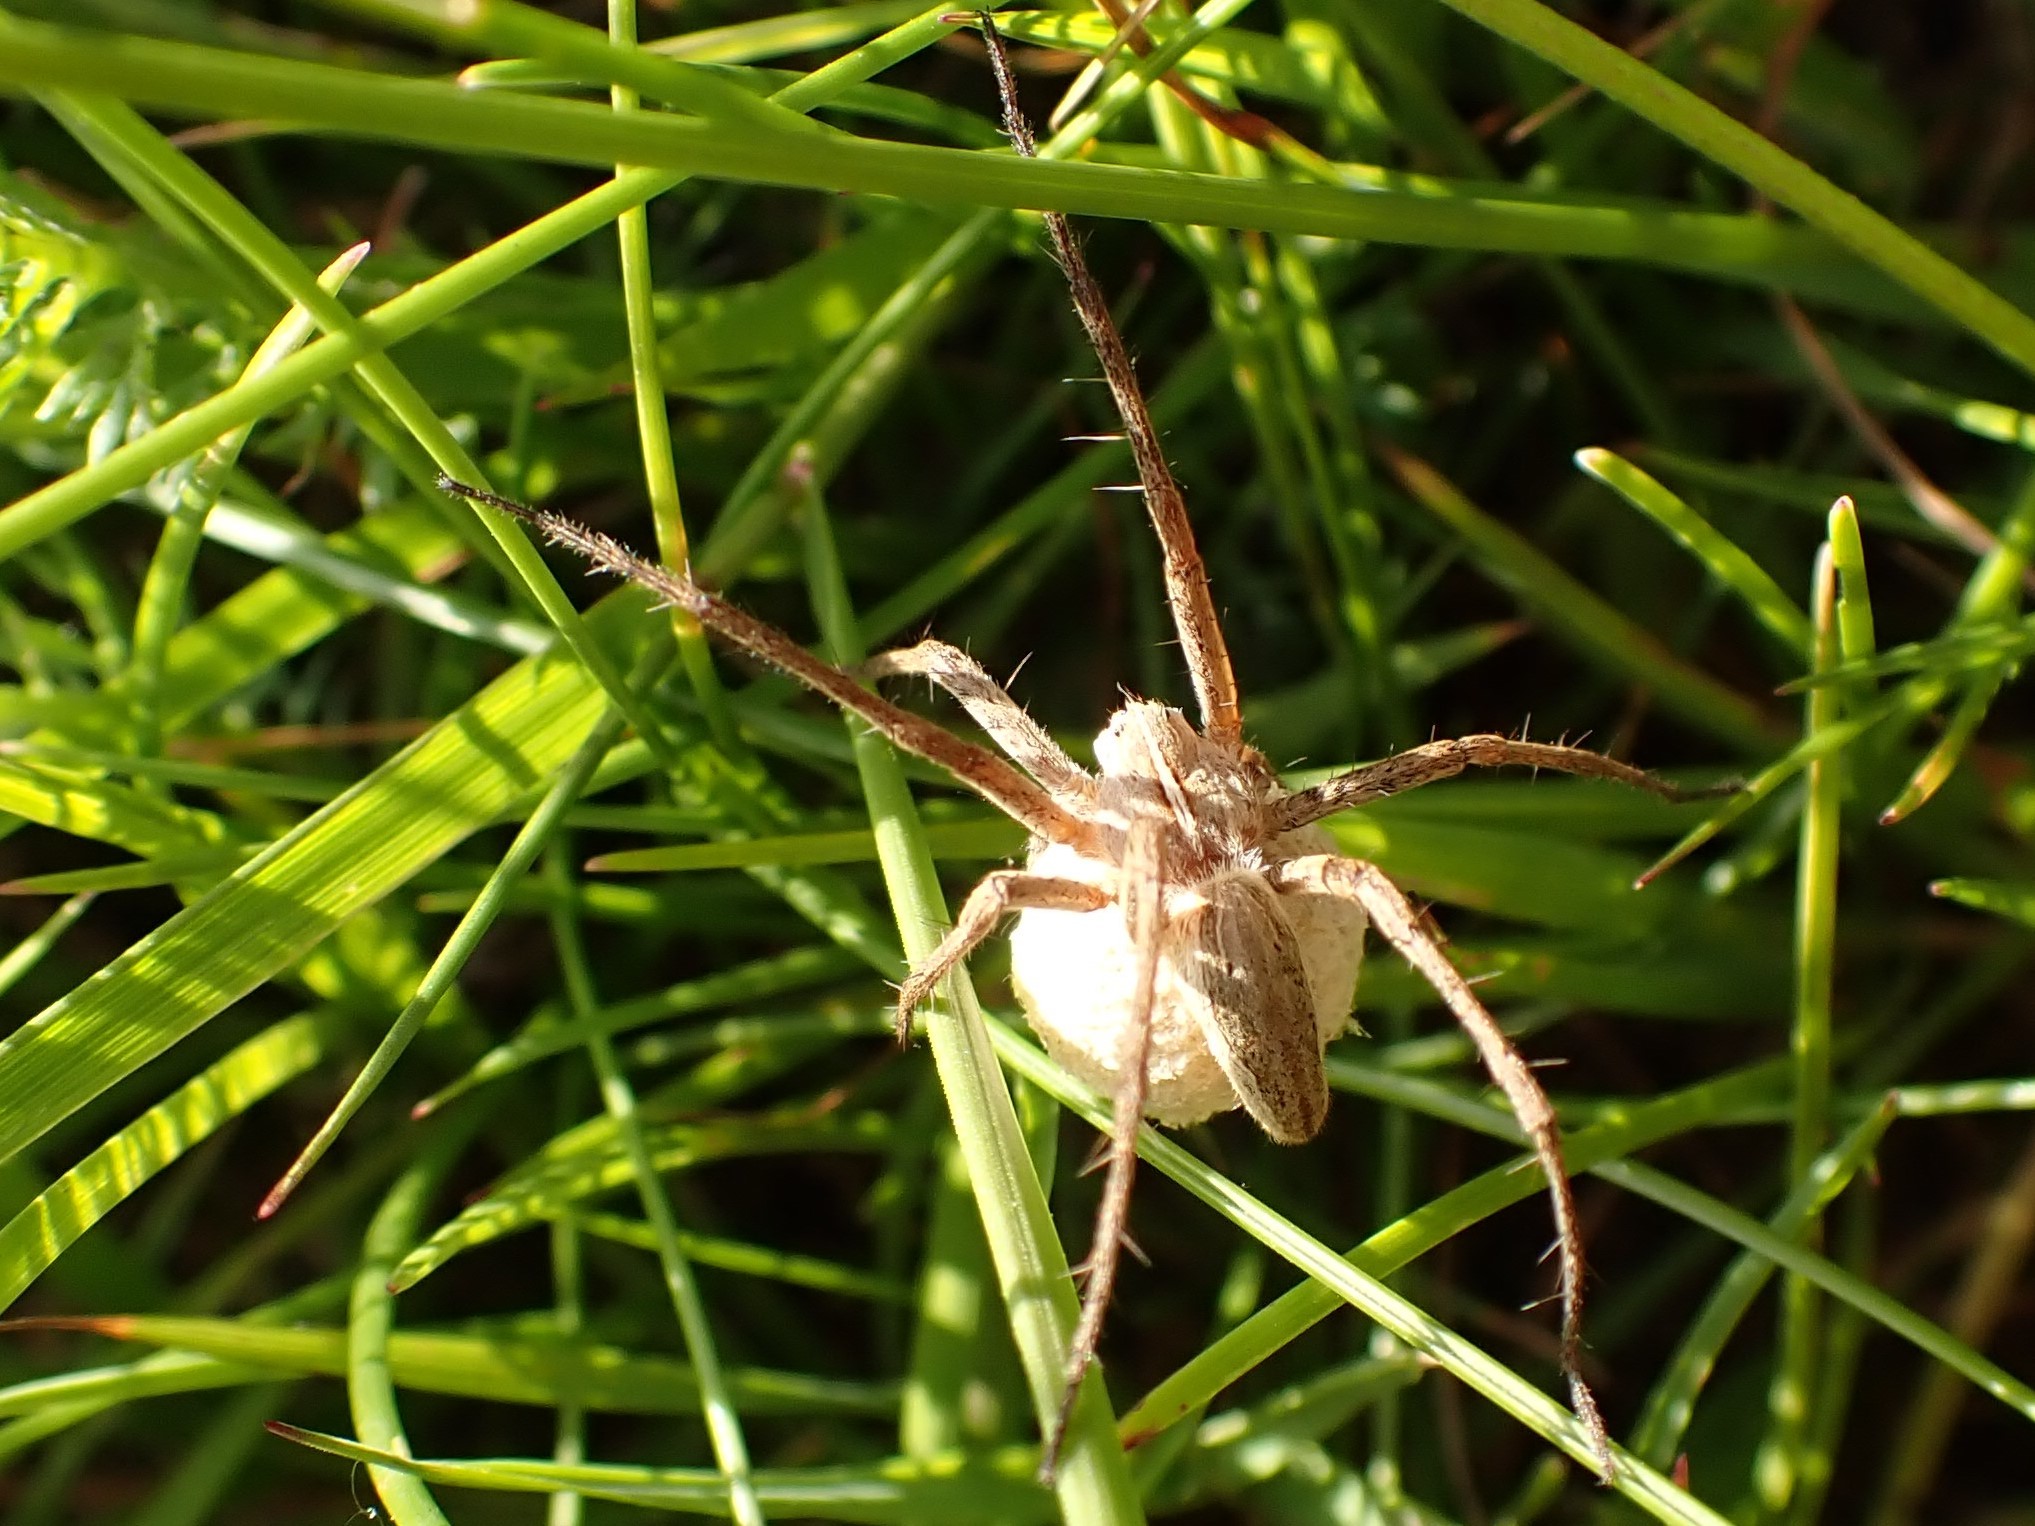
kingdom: Animalia
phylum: Arthropoda
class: Arachnida
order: Araneae
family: Pisauridae
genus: Pisaura
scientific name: Pisaura mirabilis
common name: Tent spider
